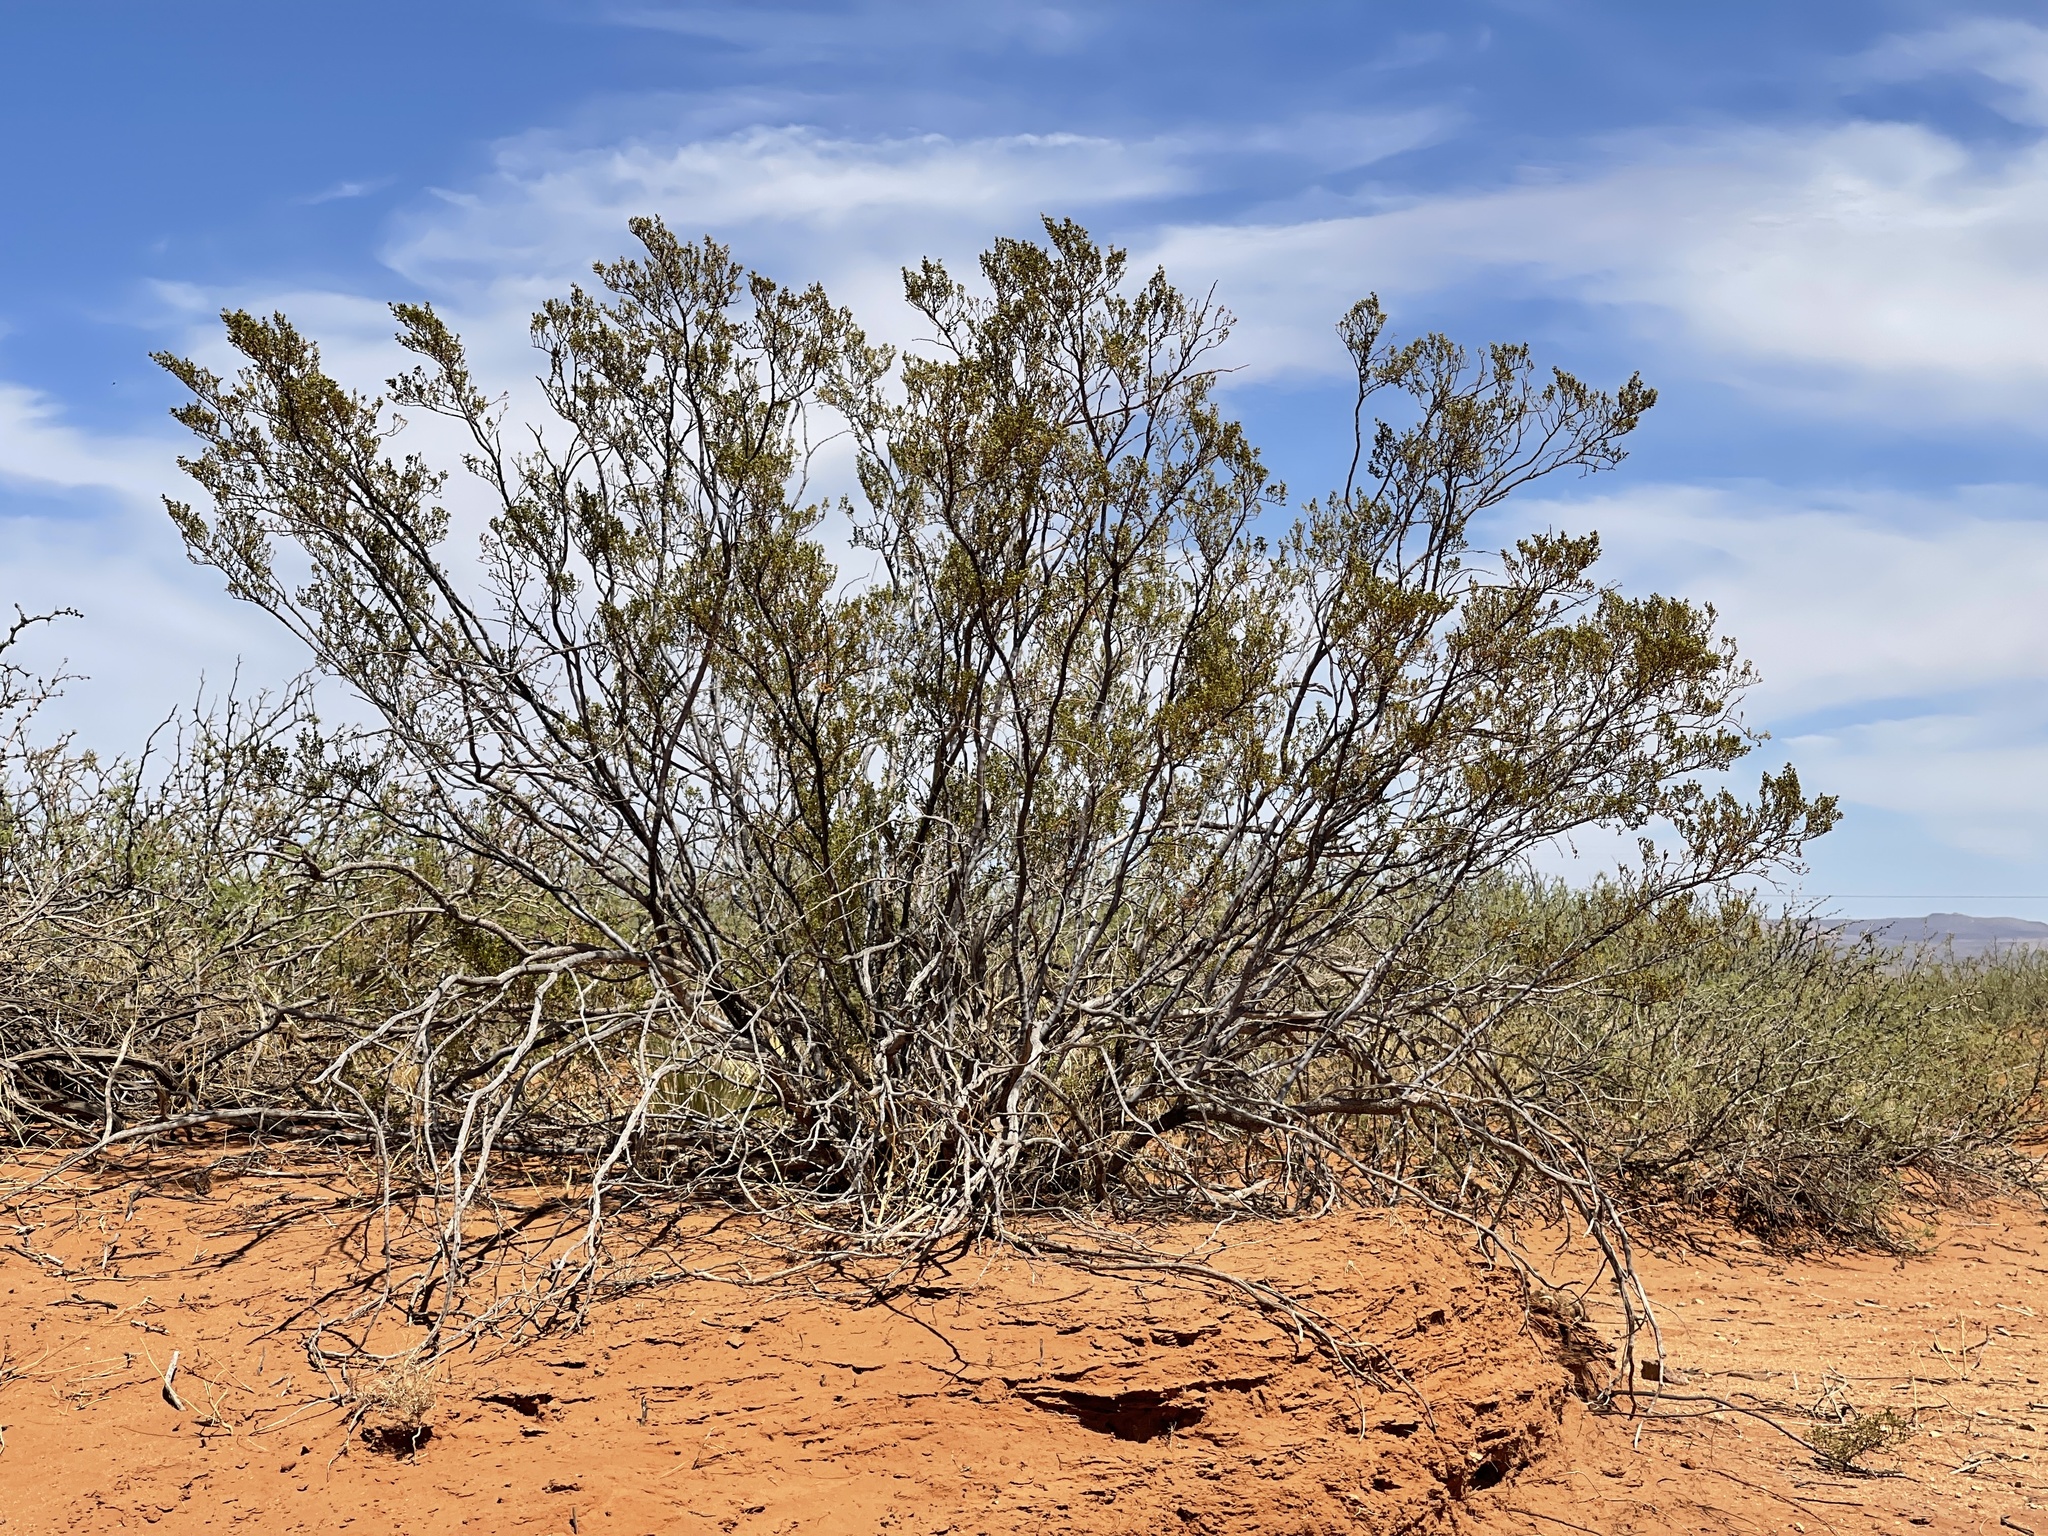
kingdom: Plantae
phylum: Tracheophyta
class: Magnoliopsida
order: Zygophyllales
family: Zygophyllaceae
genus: Larrea
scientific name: Larrea tridentata
